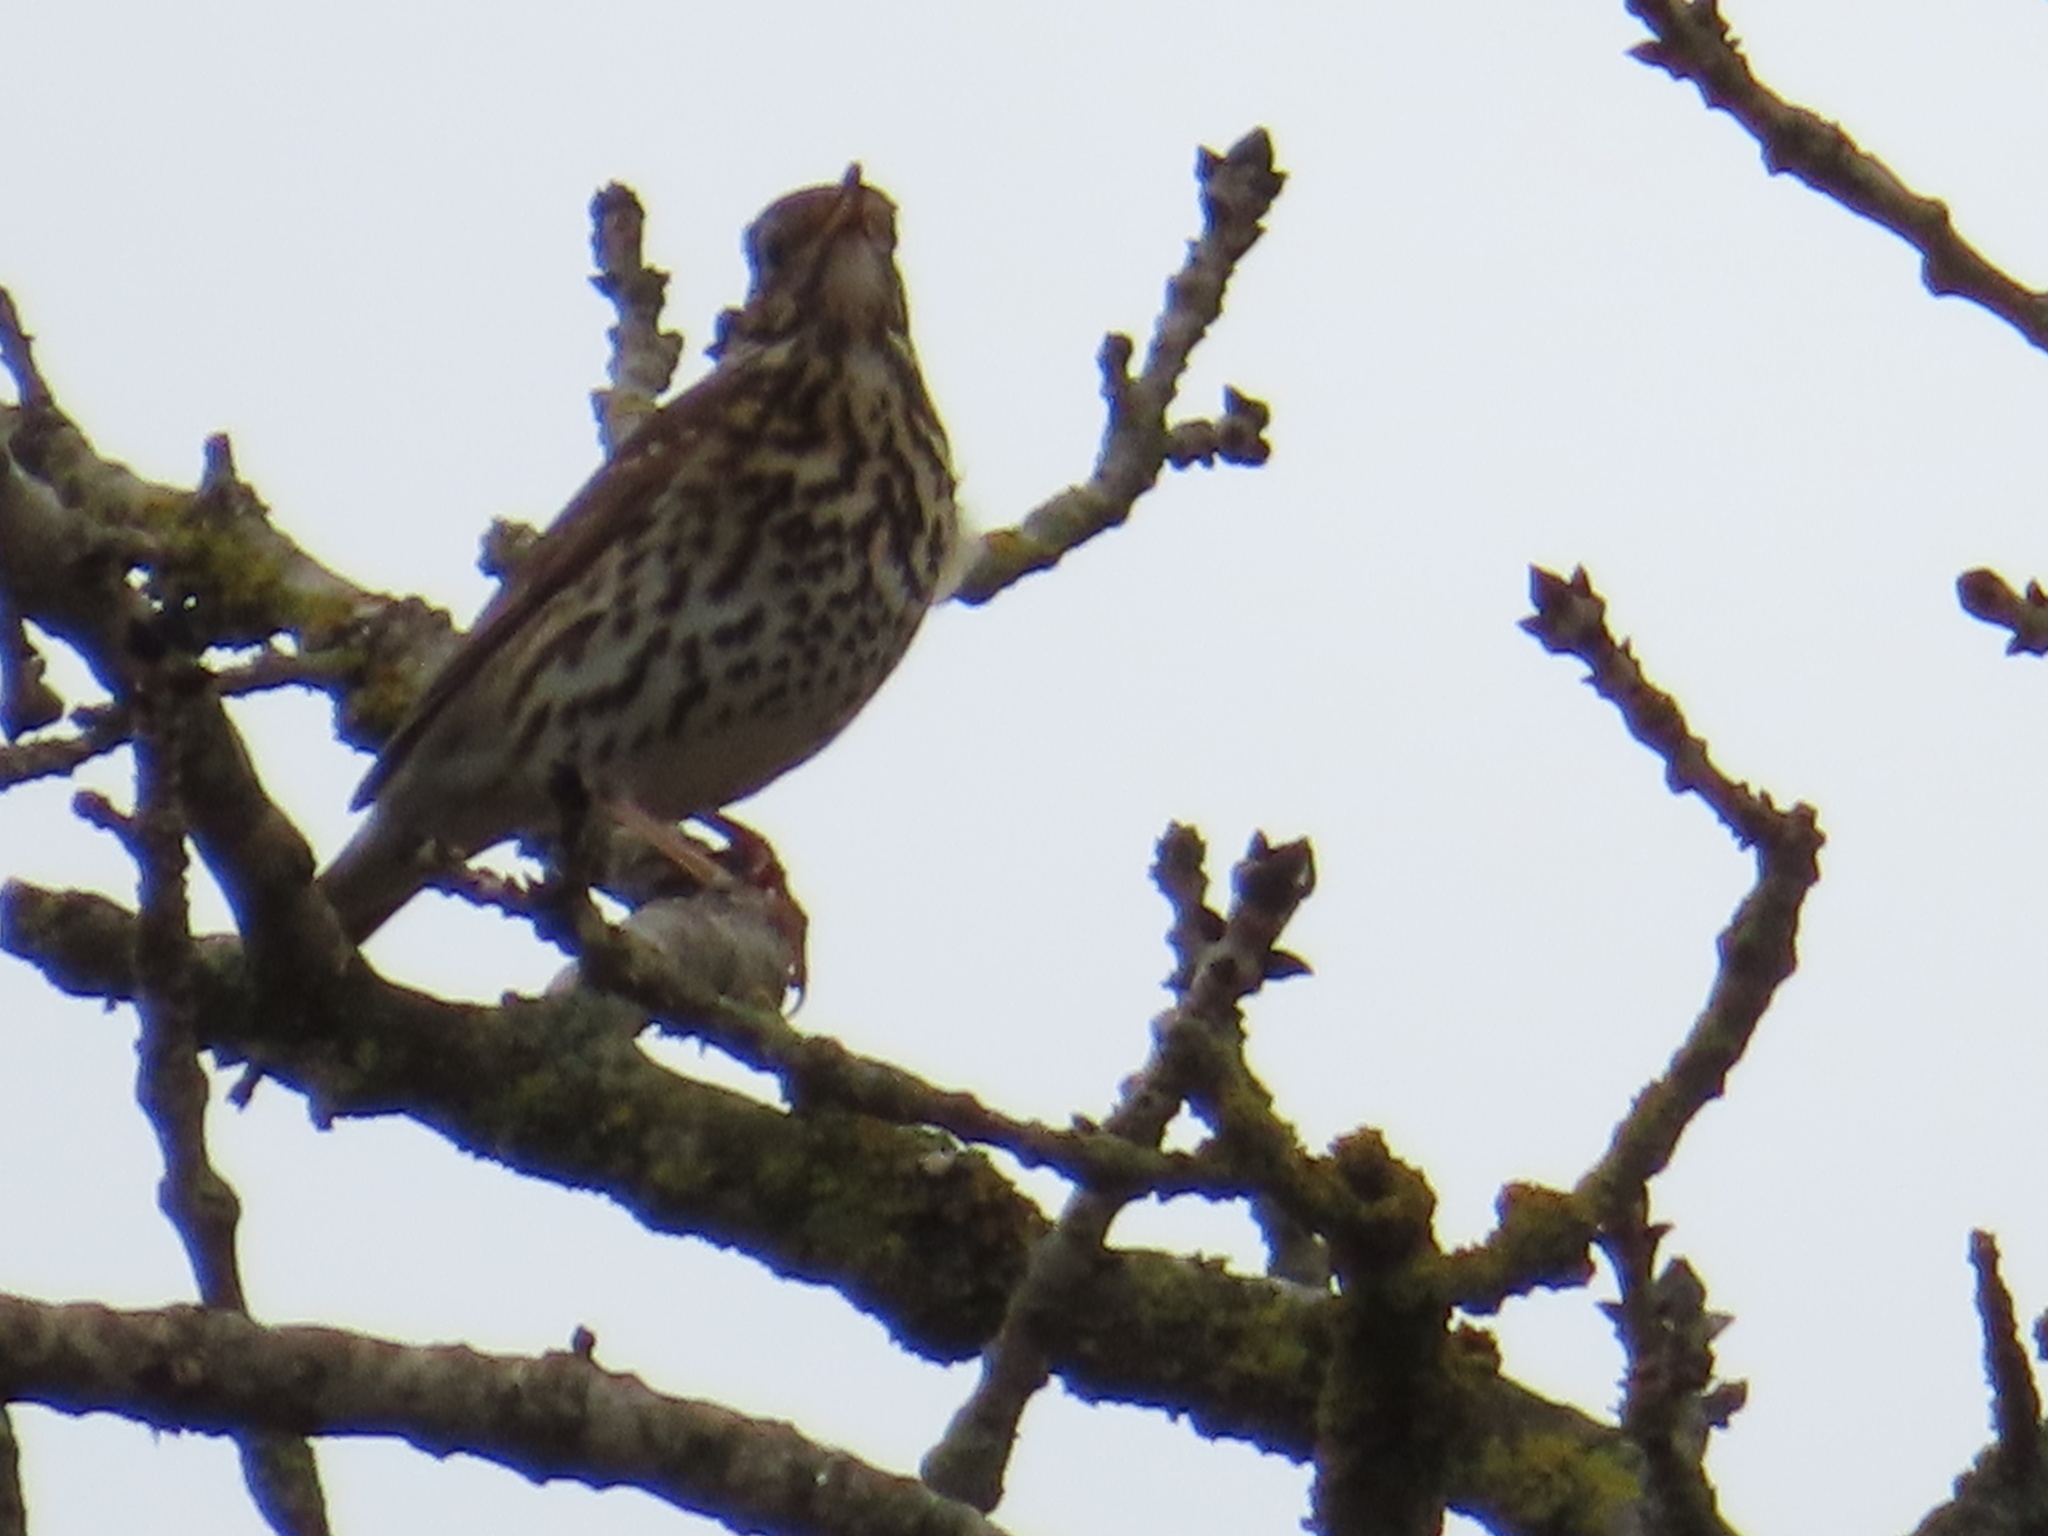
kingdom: Animalia
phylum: Chordata
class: Aves
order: Passeriformes
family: Turdidae
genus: Turdus
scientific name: Turdus philomelos
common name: Song thrush
